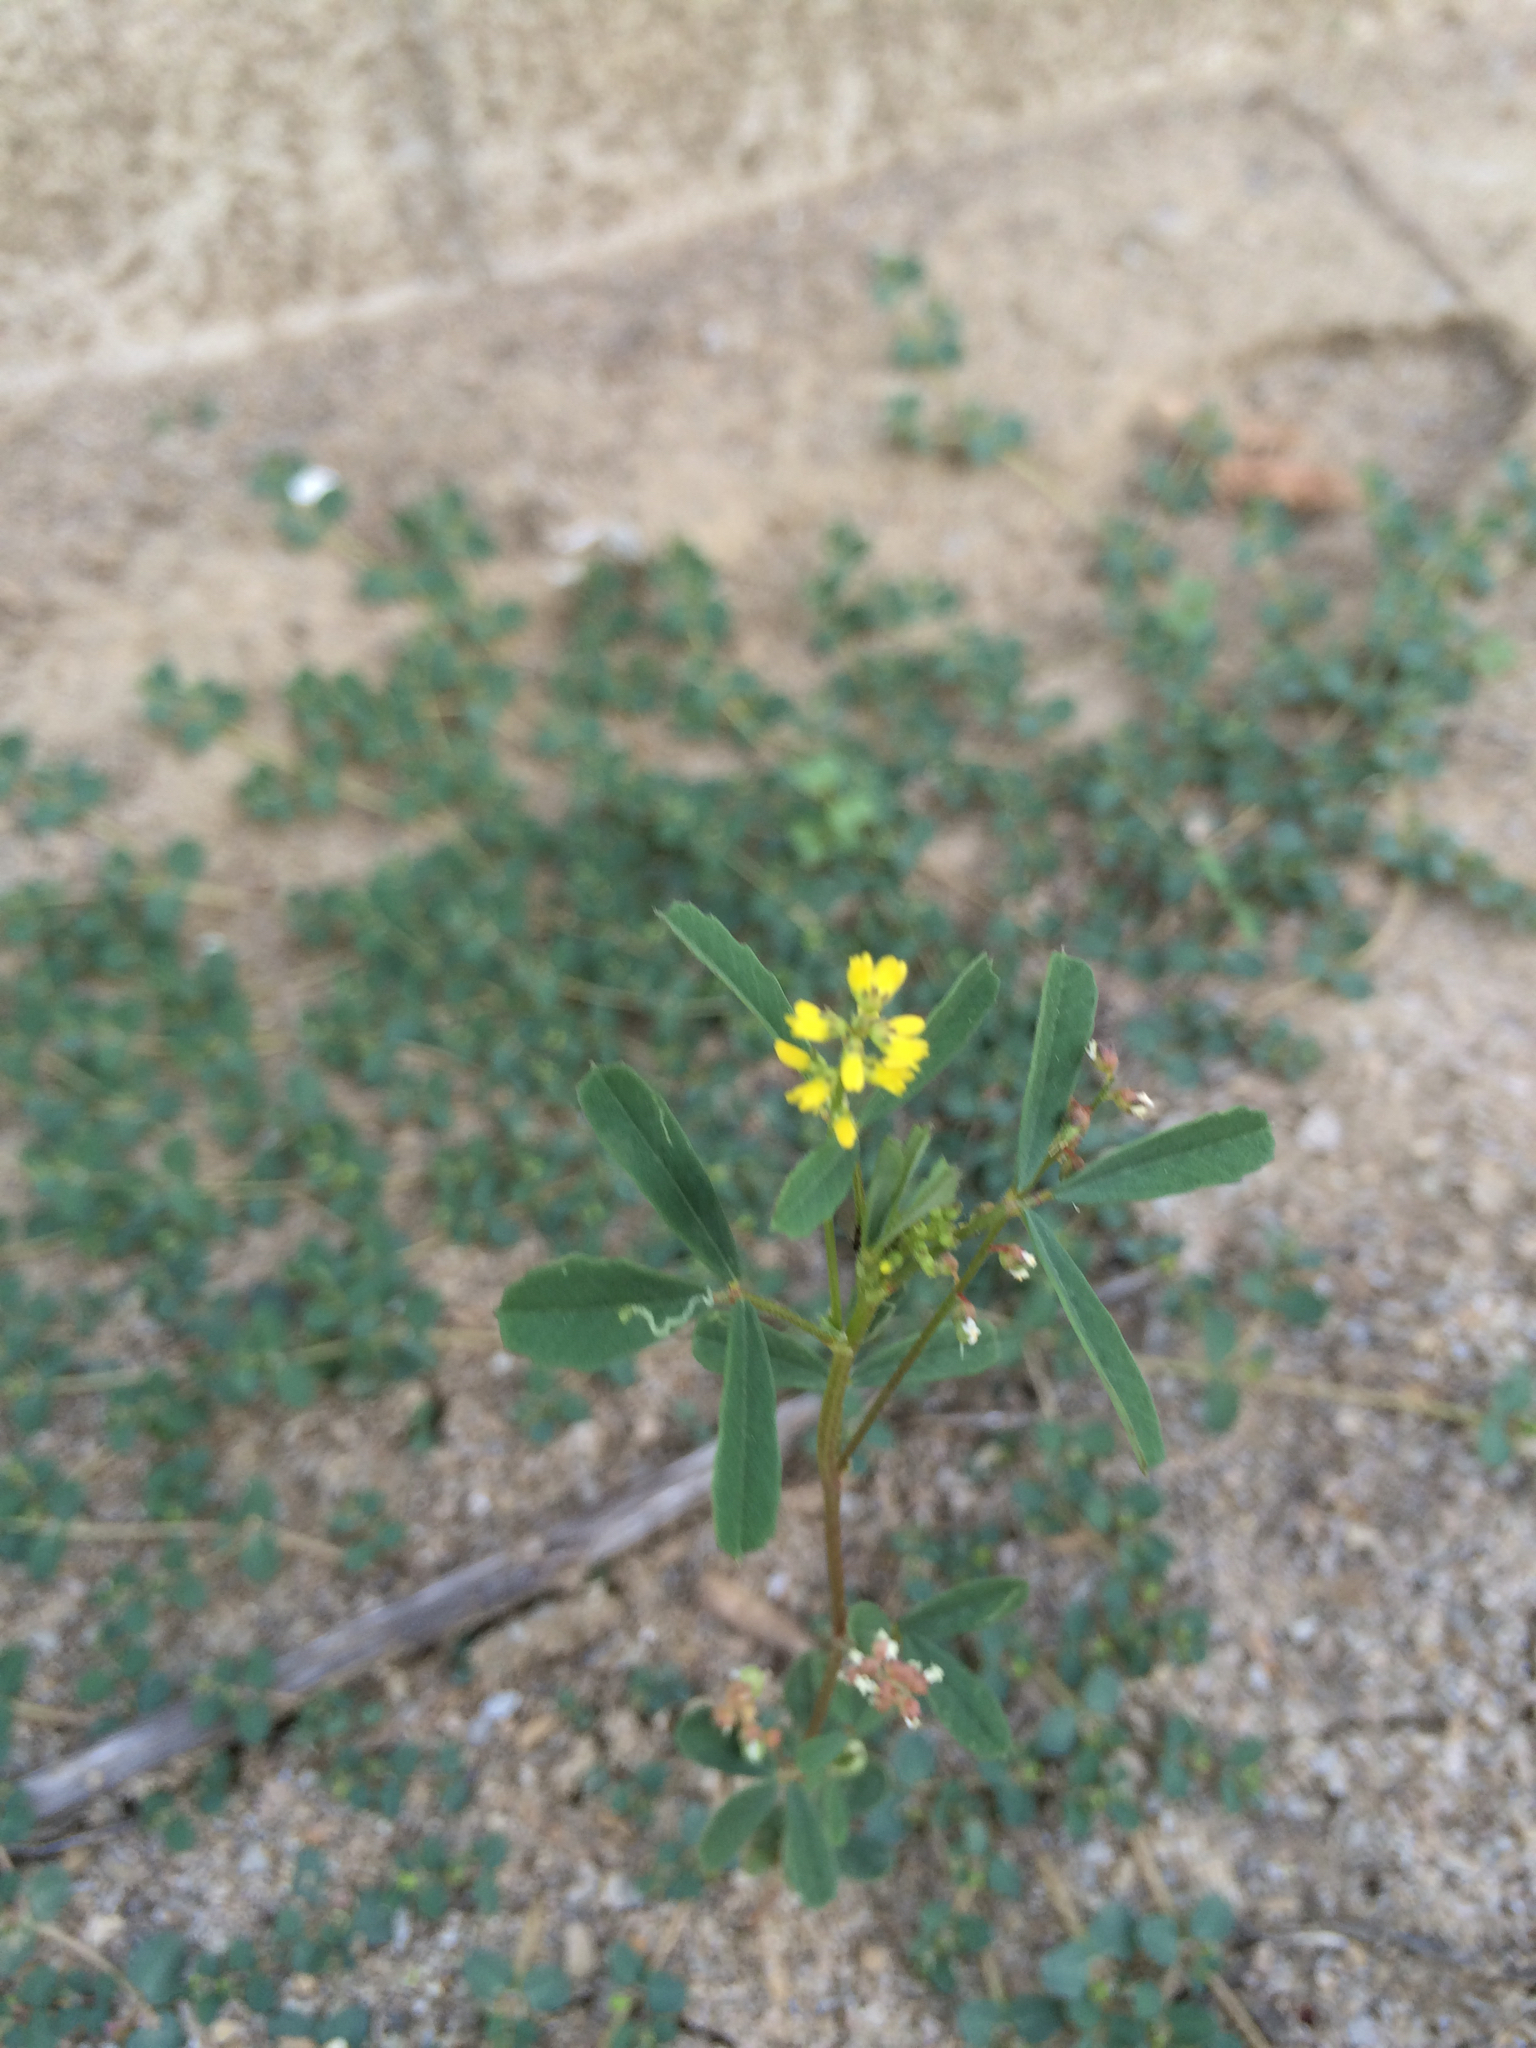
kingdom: Plantae
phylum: Tracheophyta
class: Magnoliopsida
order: Fabales
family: Fabaceae
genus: Melilotus
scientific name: Melilotus indicus
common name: Small melilot
